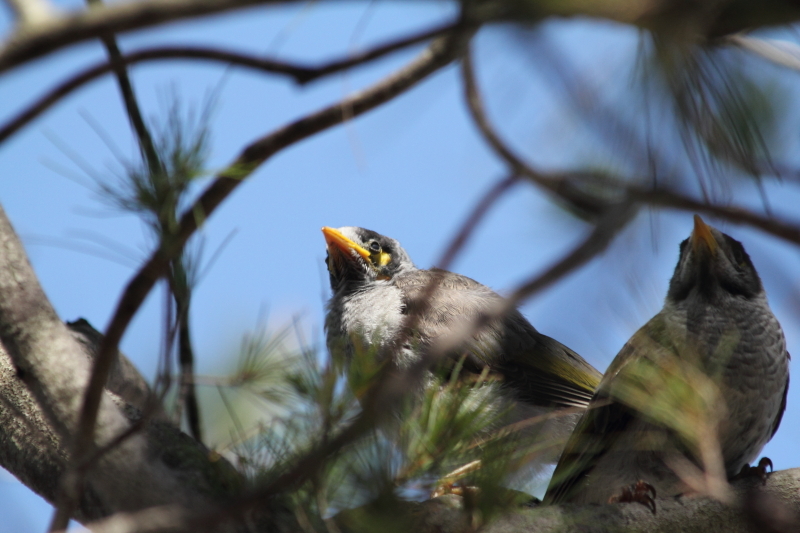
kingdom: Animalia
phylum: Chordata
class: Aves
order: Passeriformes
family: Meliphagidae
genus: Manorina
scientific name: Manorina melanocephala
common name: Noisy miner
